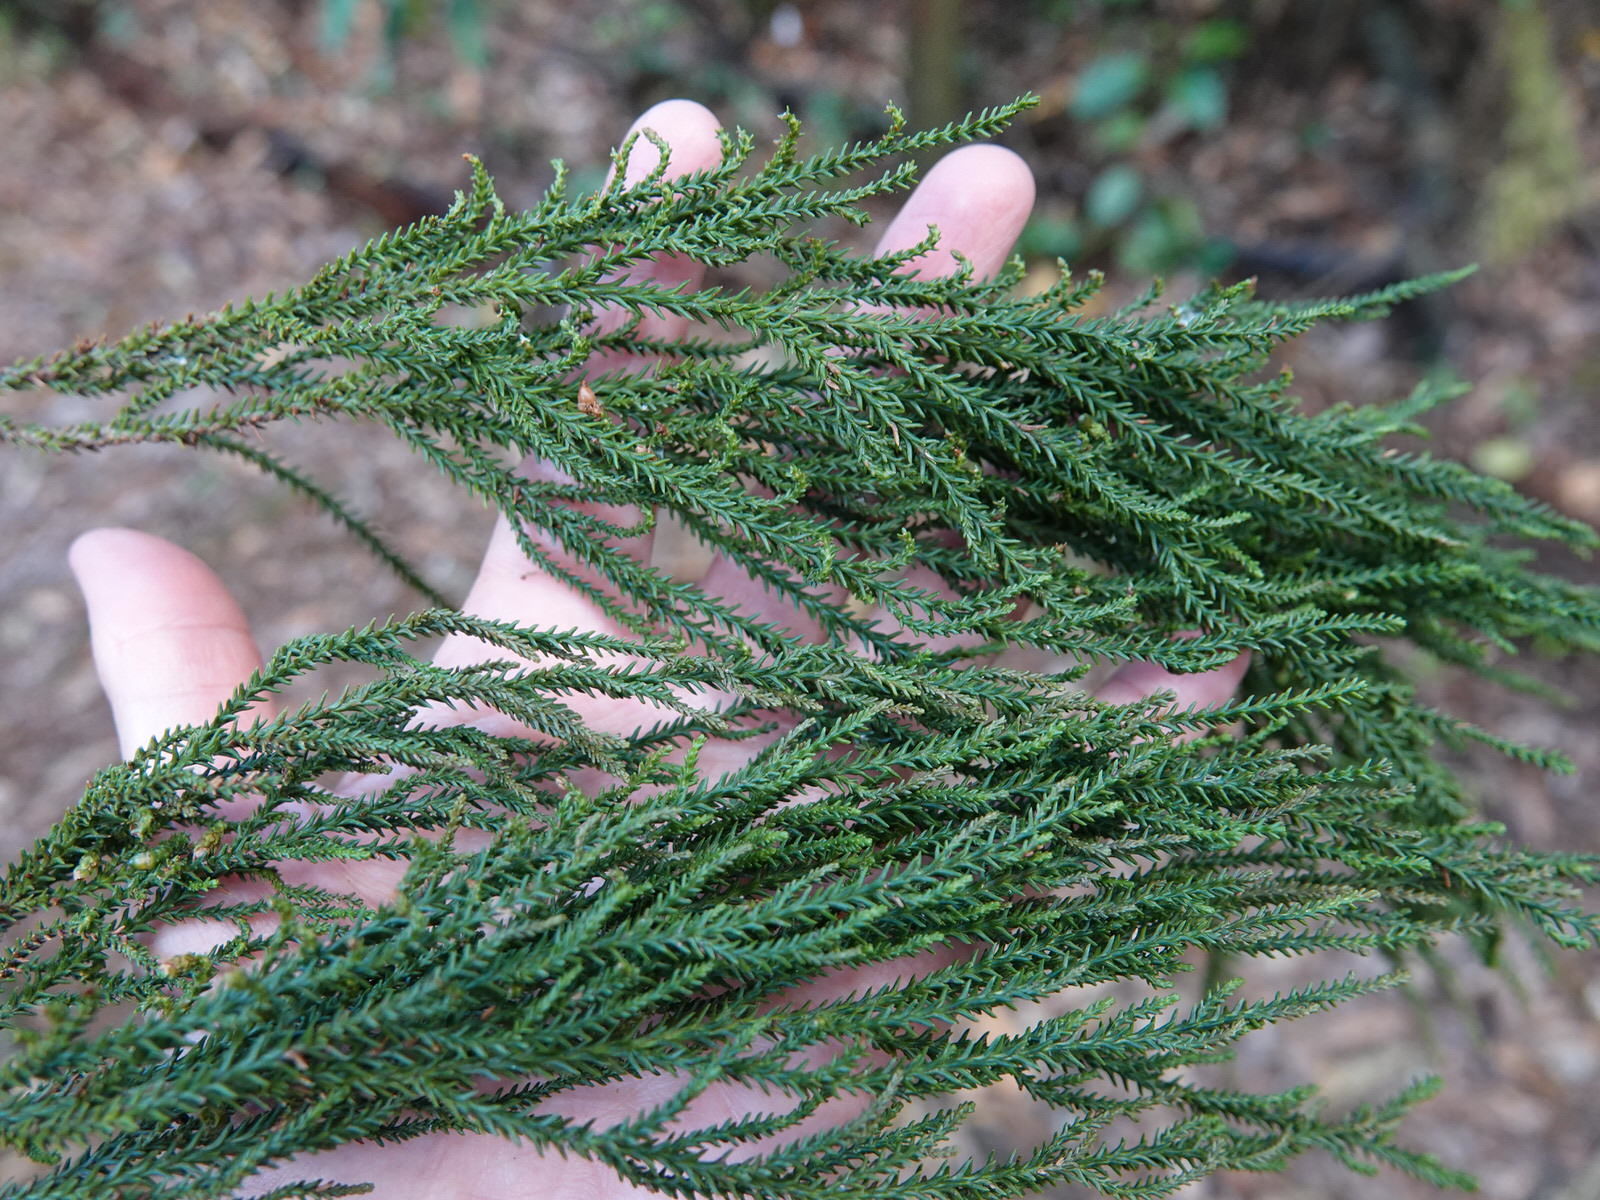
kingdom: Plantae
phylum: Tracheophyta
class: Pinopsida
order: Pinales
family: Podocarpaceae
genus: Dacrydium
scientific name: Dacrydium cupressinum
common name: Red pine
